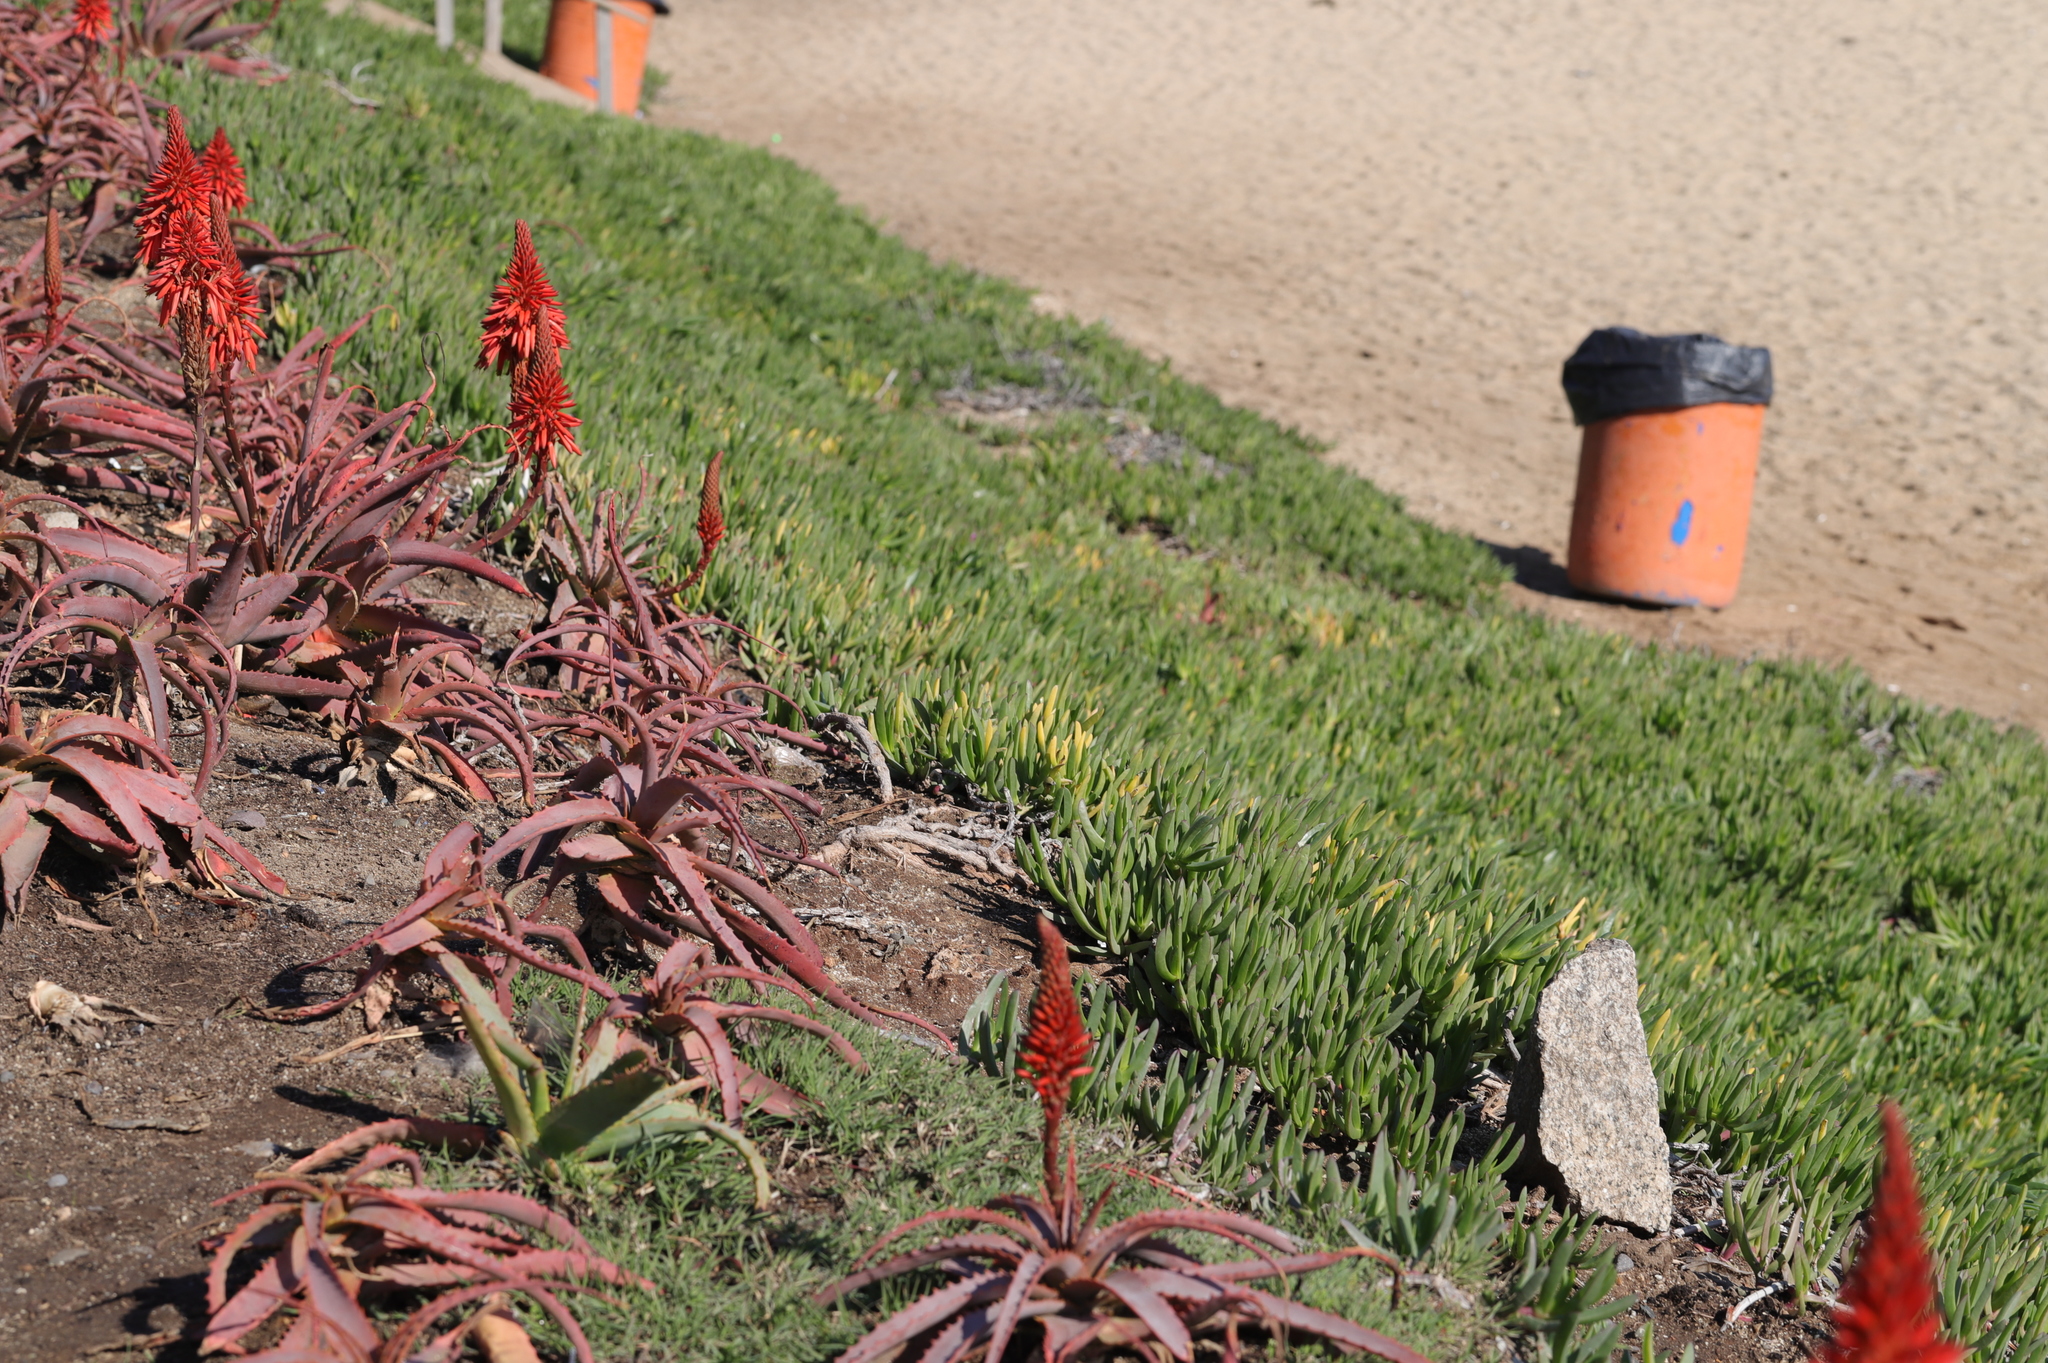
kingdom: Plantae
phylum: Tracheophyta
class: Magnoliopsida
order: Caryophyllales
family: Aizoaceae
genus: Carpobrotus
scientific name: Carpobrotus edulis
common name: Hottentot-fig
